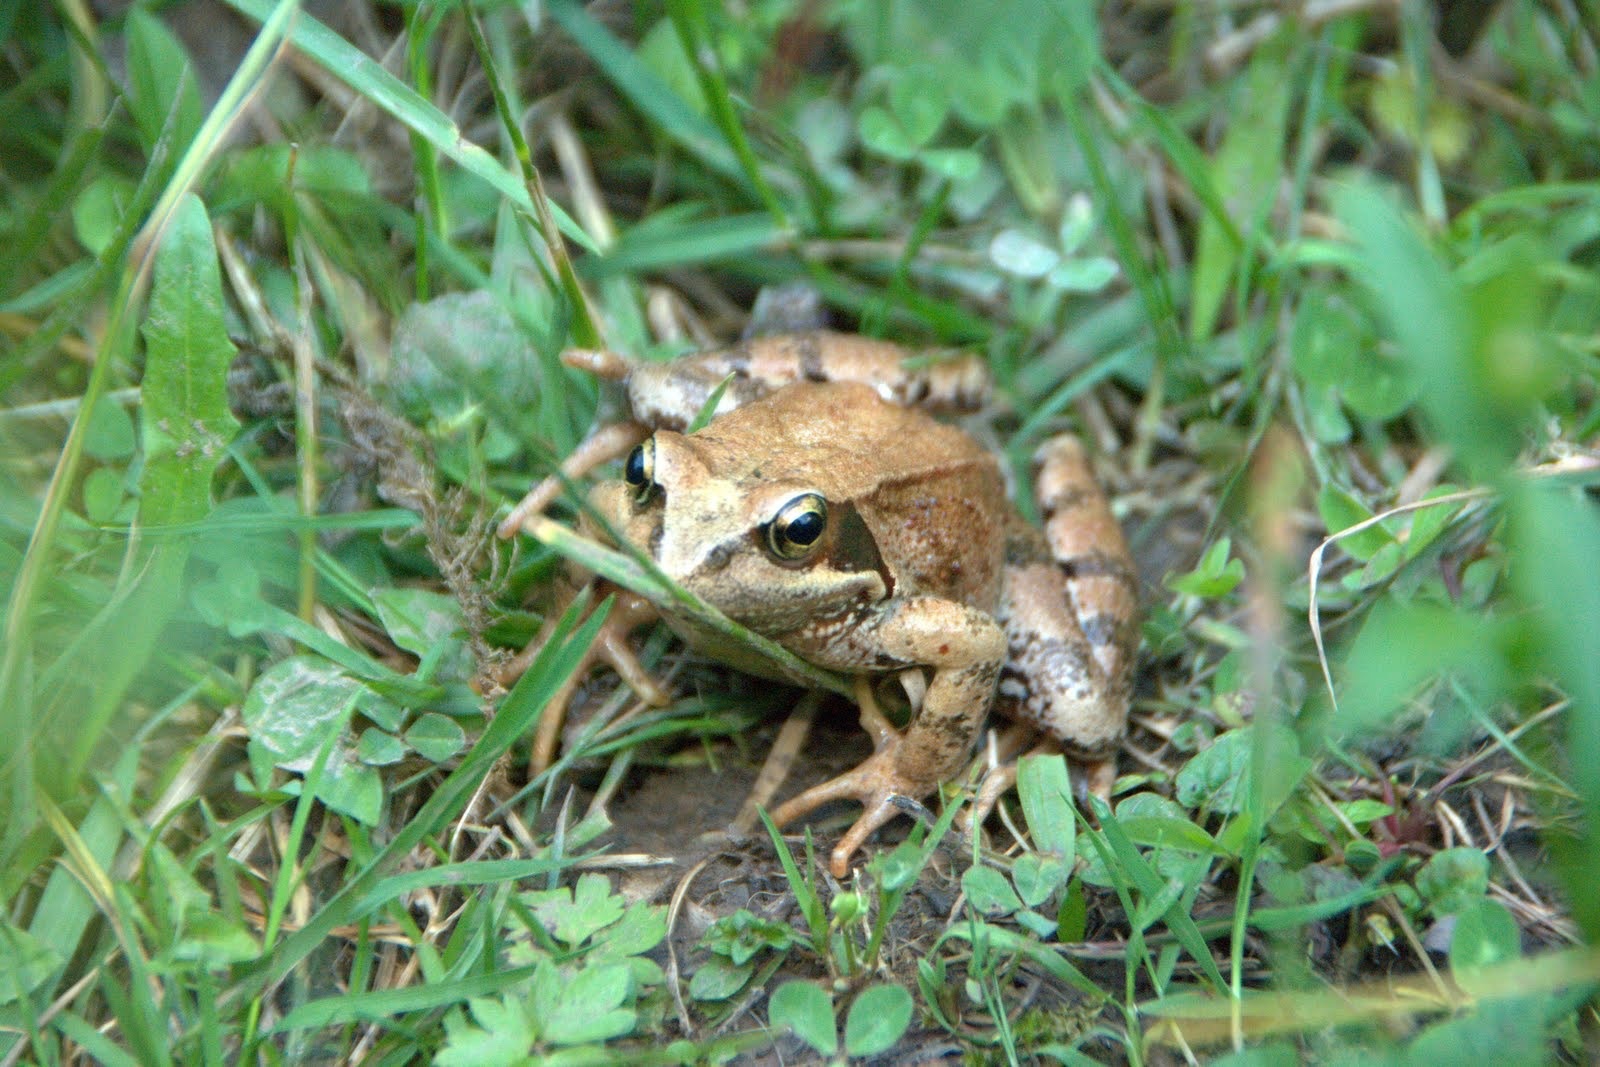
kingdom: Animalia
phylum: Chordata
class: Amphibia
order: Anura
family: Ranidae
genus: Rana
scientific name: Rana temporaria
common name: Common frog
